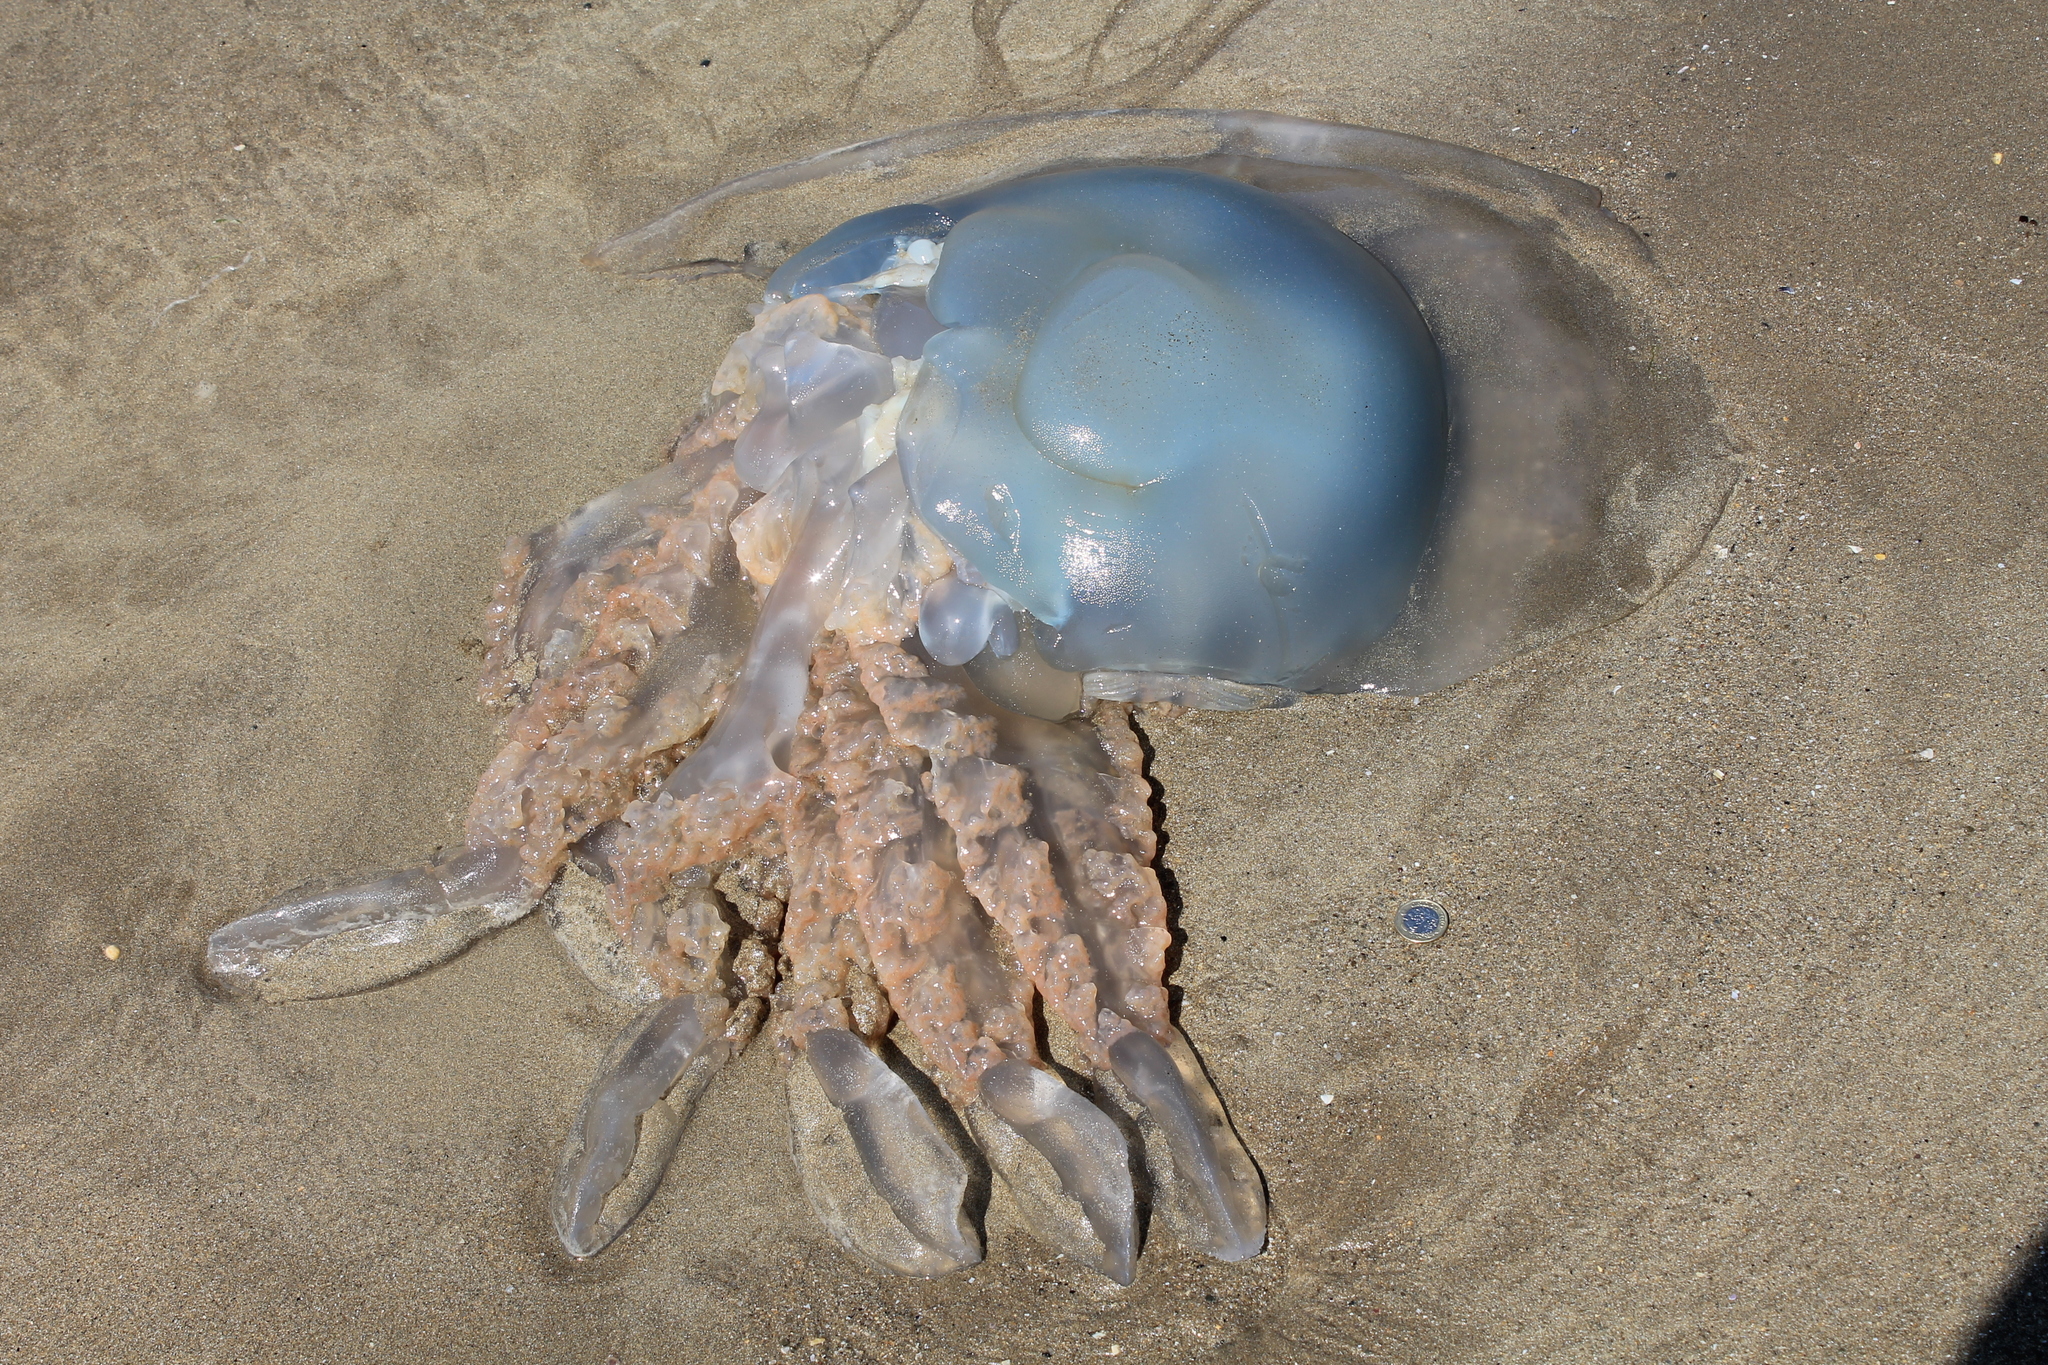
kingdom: Animalia
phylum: Cnidaria
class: Scyphozoa
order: Rhizostomeae
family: Rhizostomatidae
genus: Rhizostoma
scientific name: Rhizostoma octopus
